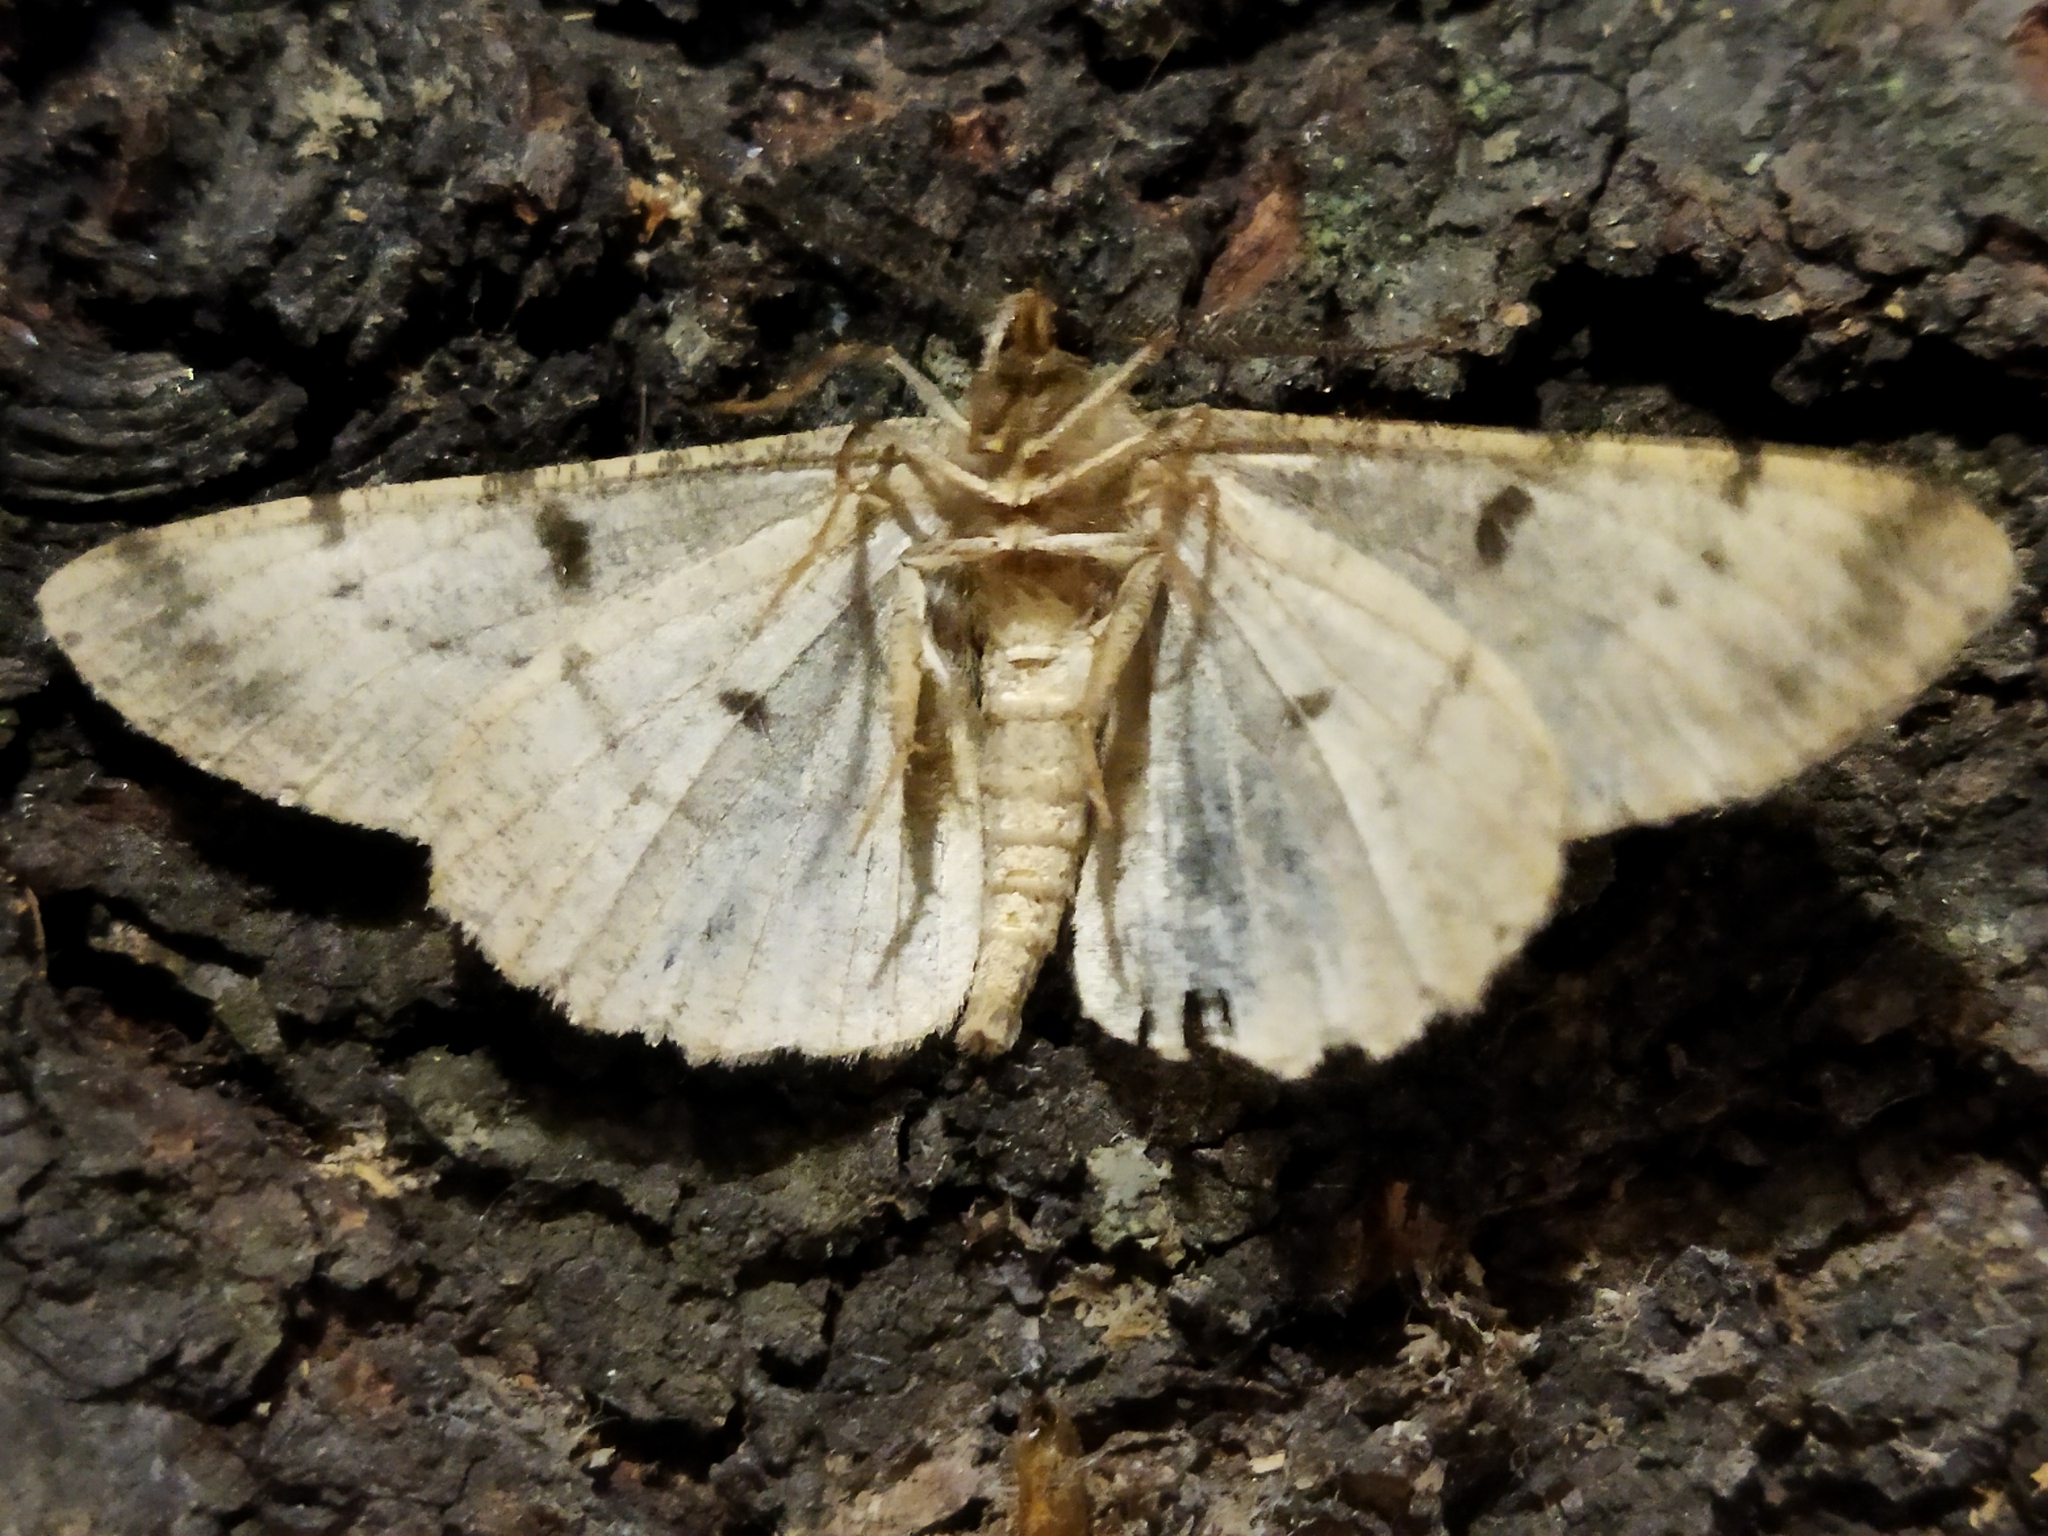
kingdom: Animalia
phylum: Arthropoda
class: Insecta
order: Lepidoptera
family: Geometridae
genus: Hypomecis
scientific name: Hypomecis punctinalis
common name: Pale oak beauty
